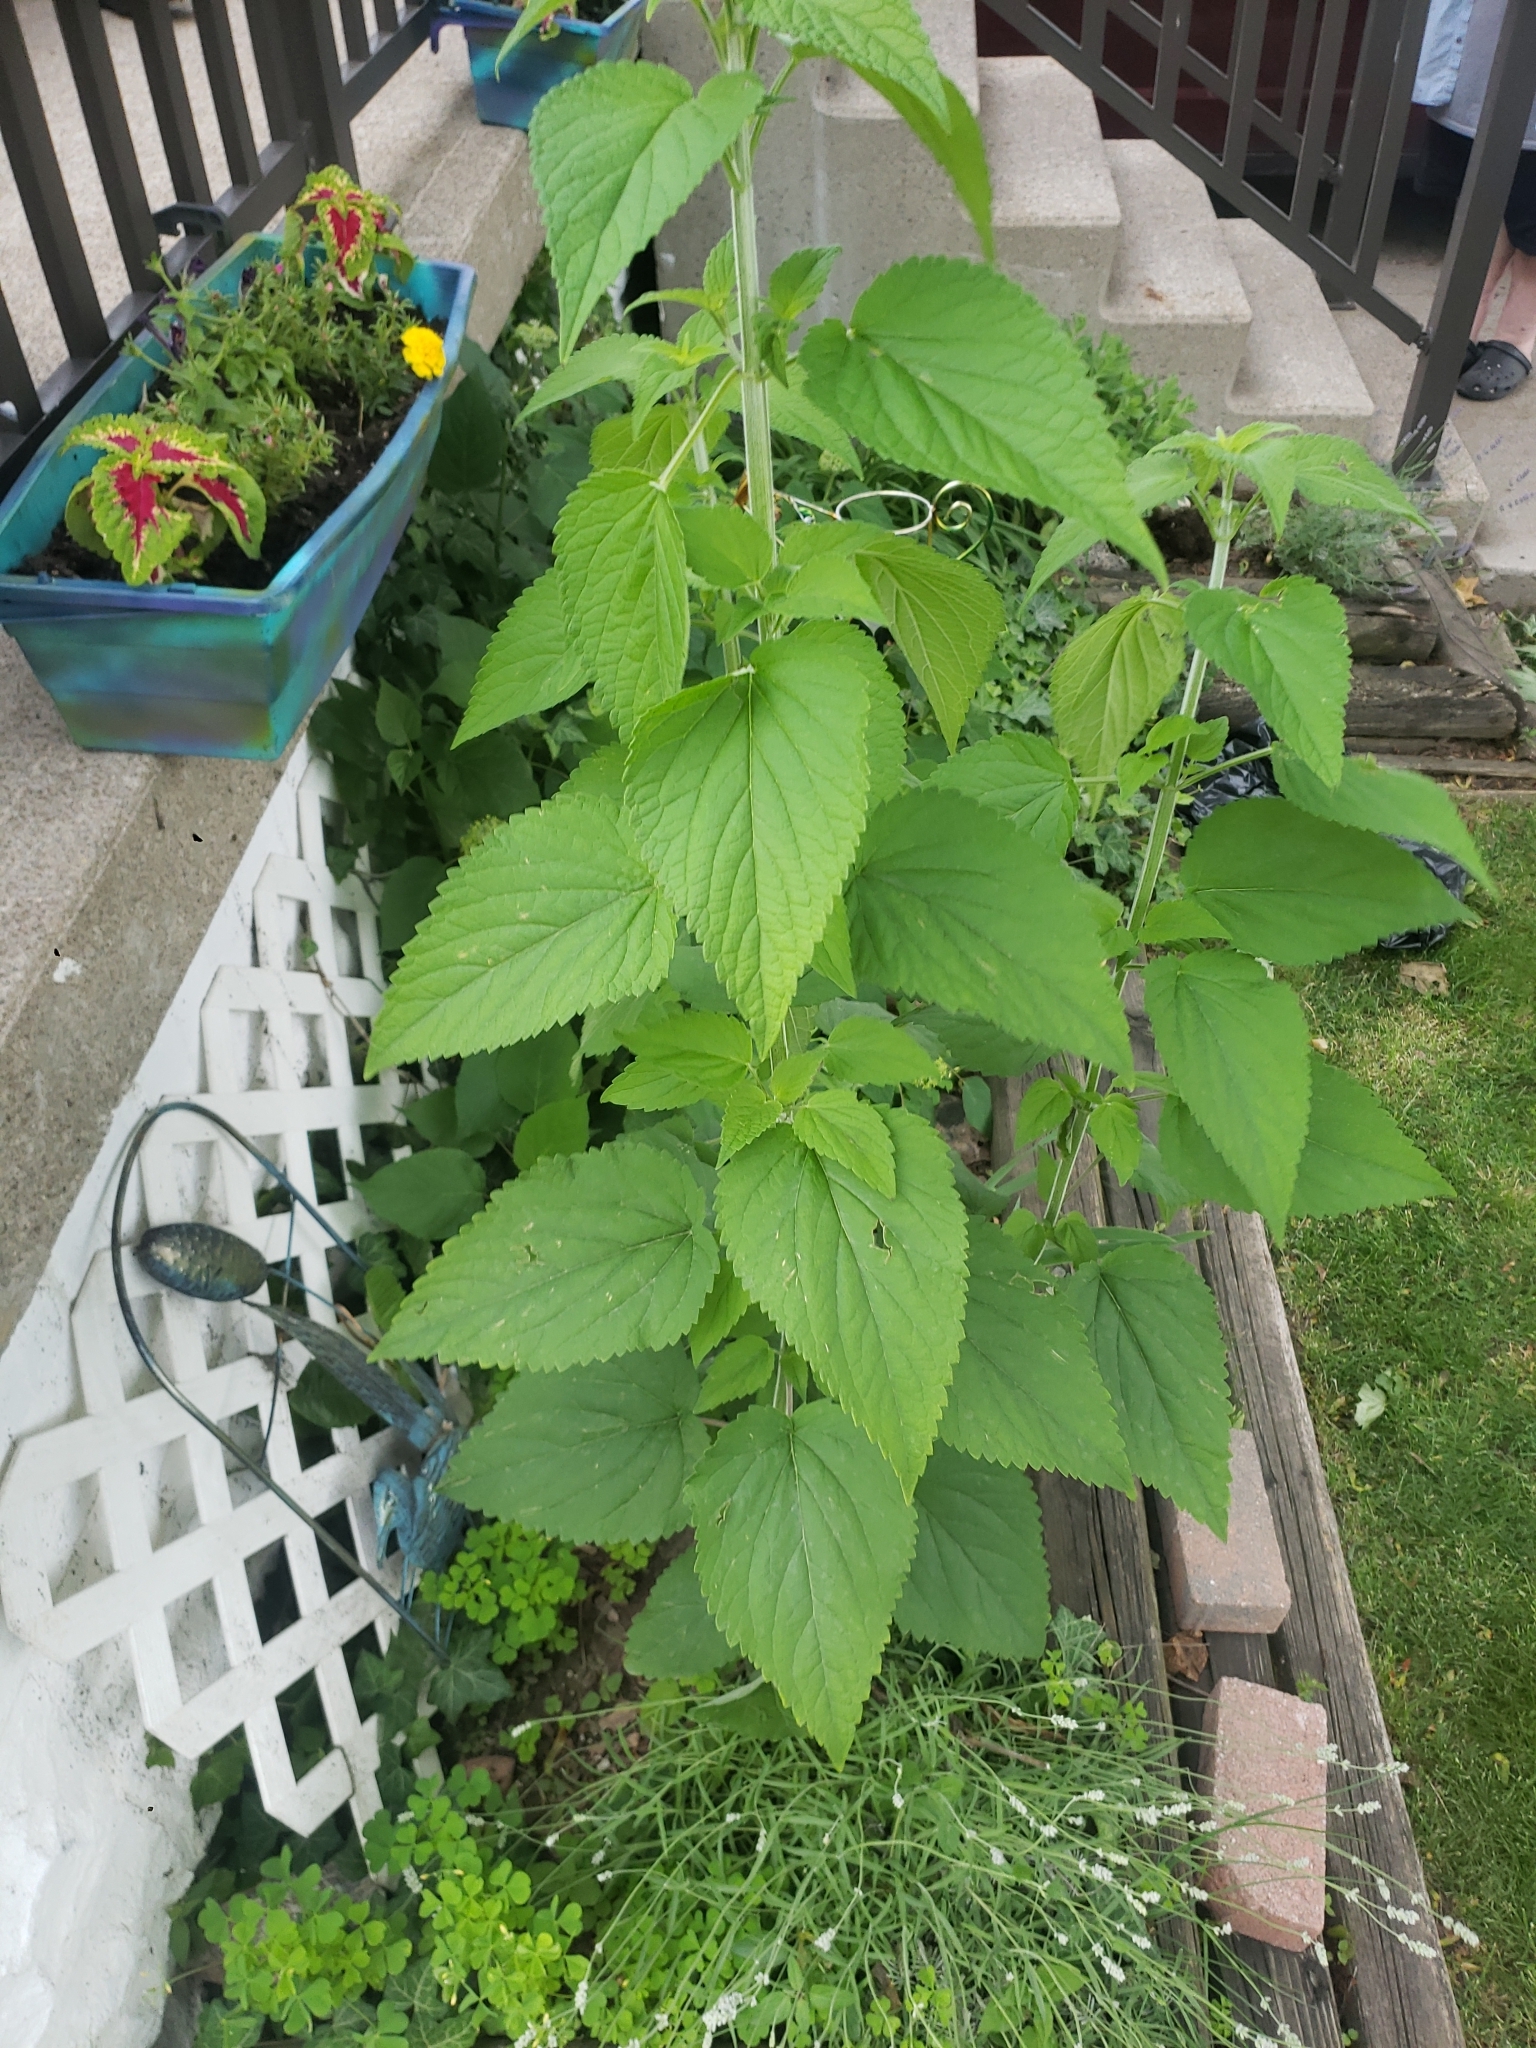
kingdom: Plantae
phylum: Tracheophyta
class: Magnoliopsida
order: Asterales
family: Asteraceae
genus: Solidago
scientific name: Solidago flexicaulis
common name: Zig-zag goldenrod
